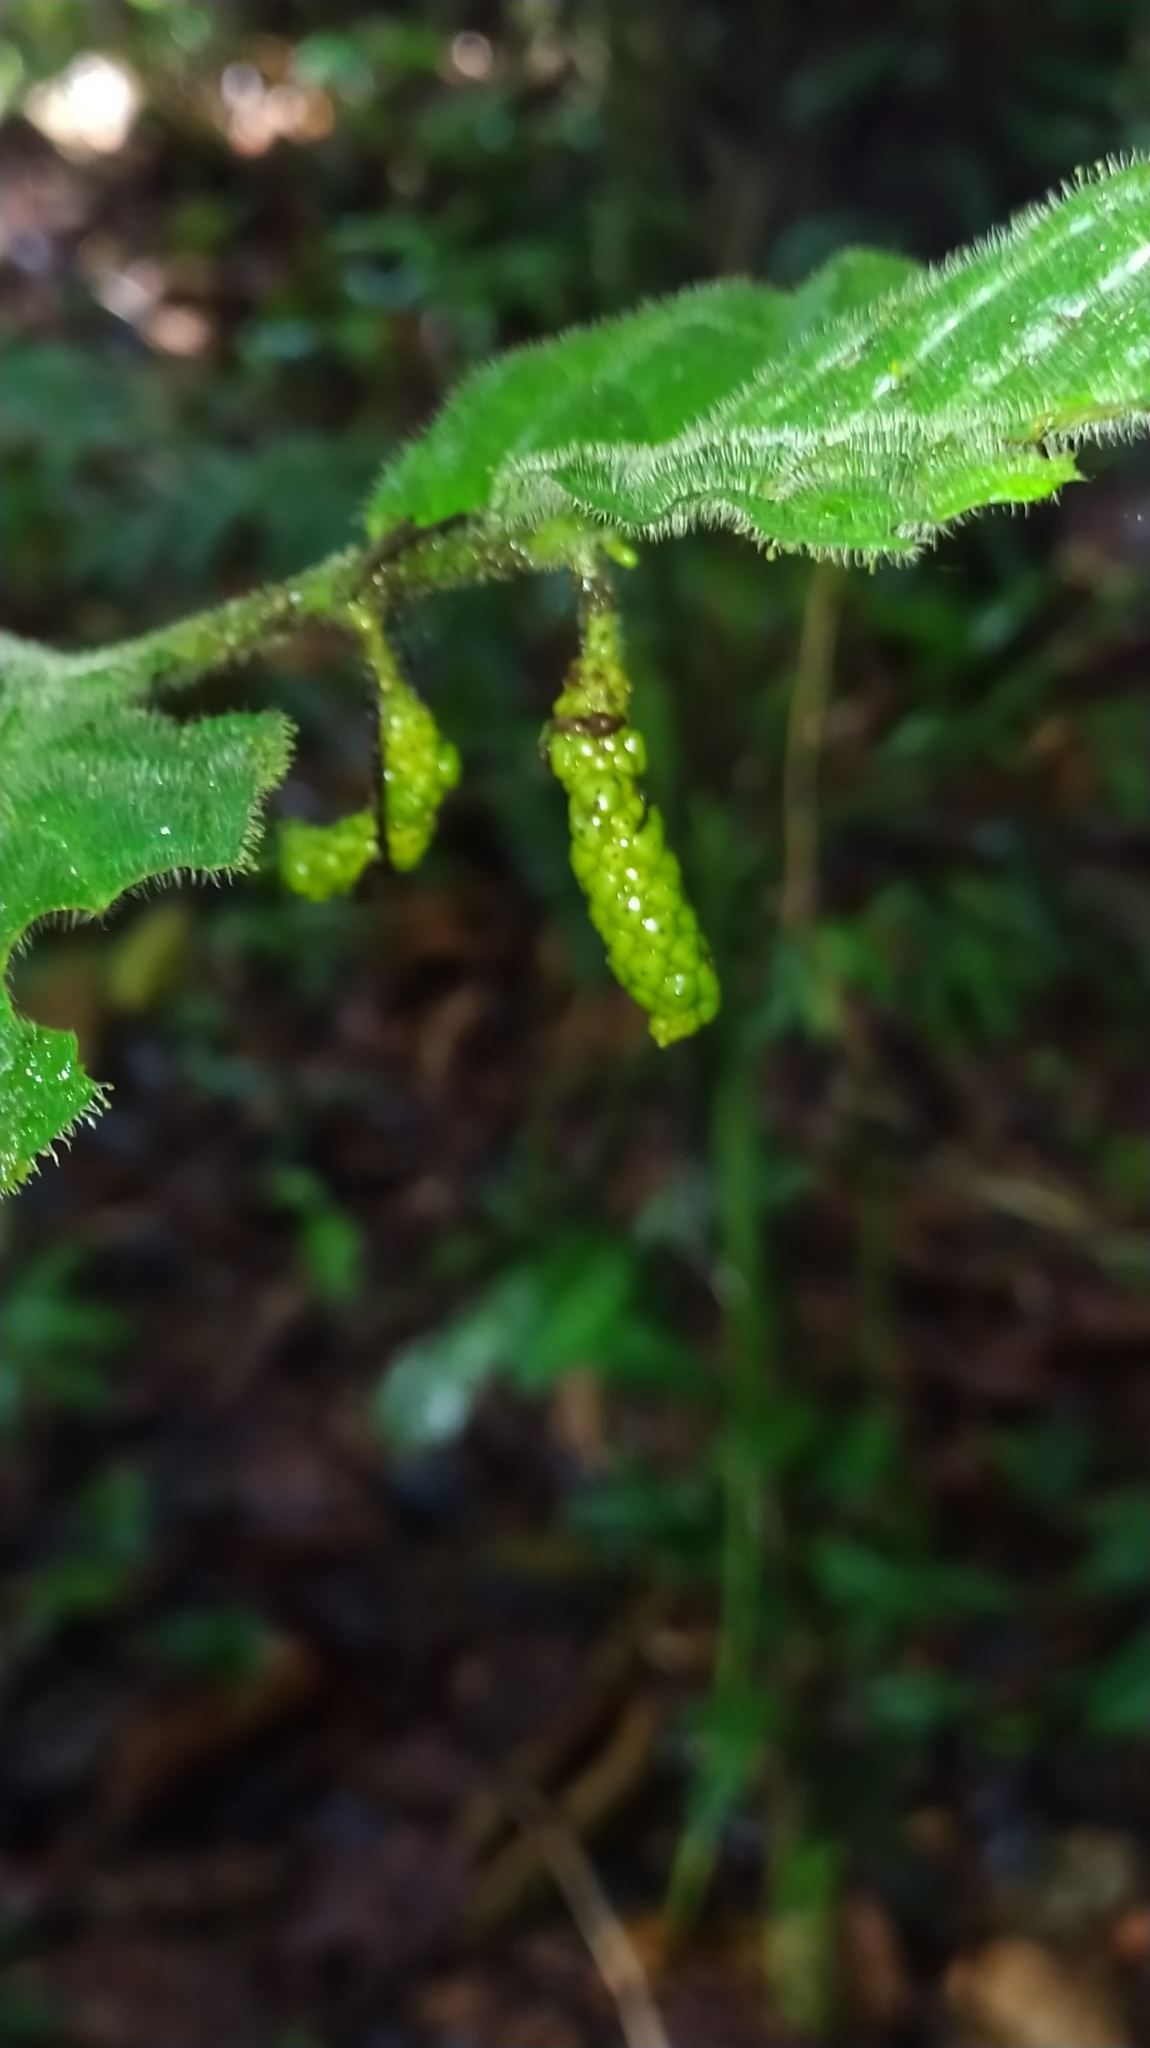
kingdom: Plantae
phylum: Tracheophyta
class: Magnoliopsida
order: Piperales
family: Piperaceae
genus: Piper
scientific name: Piper brownsbergense
